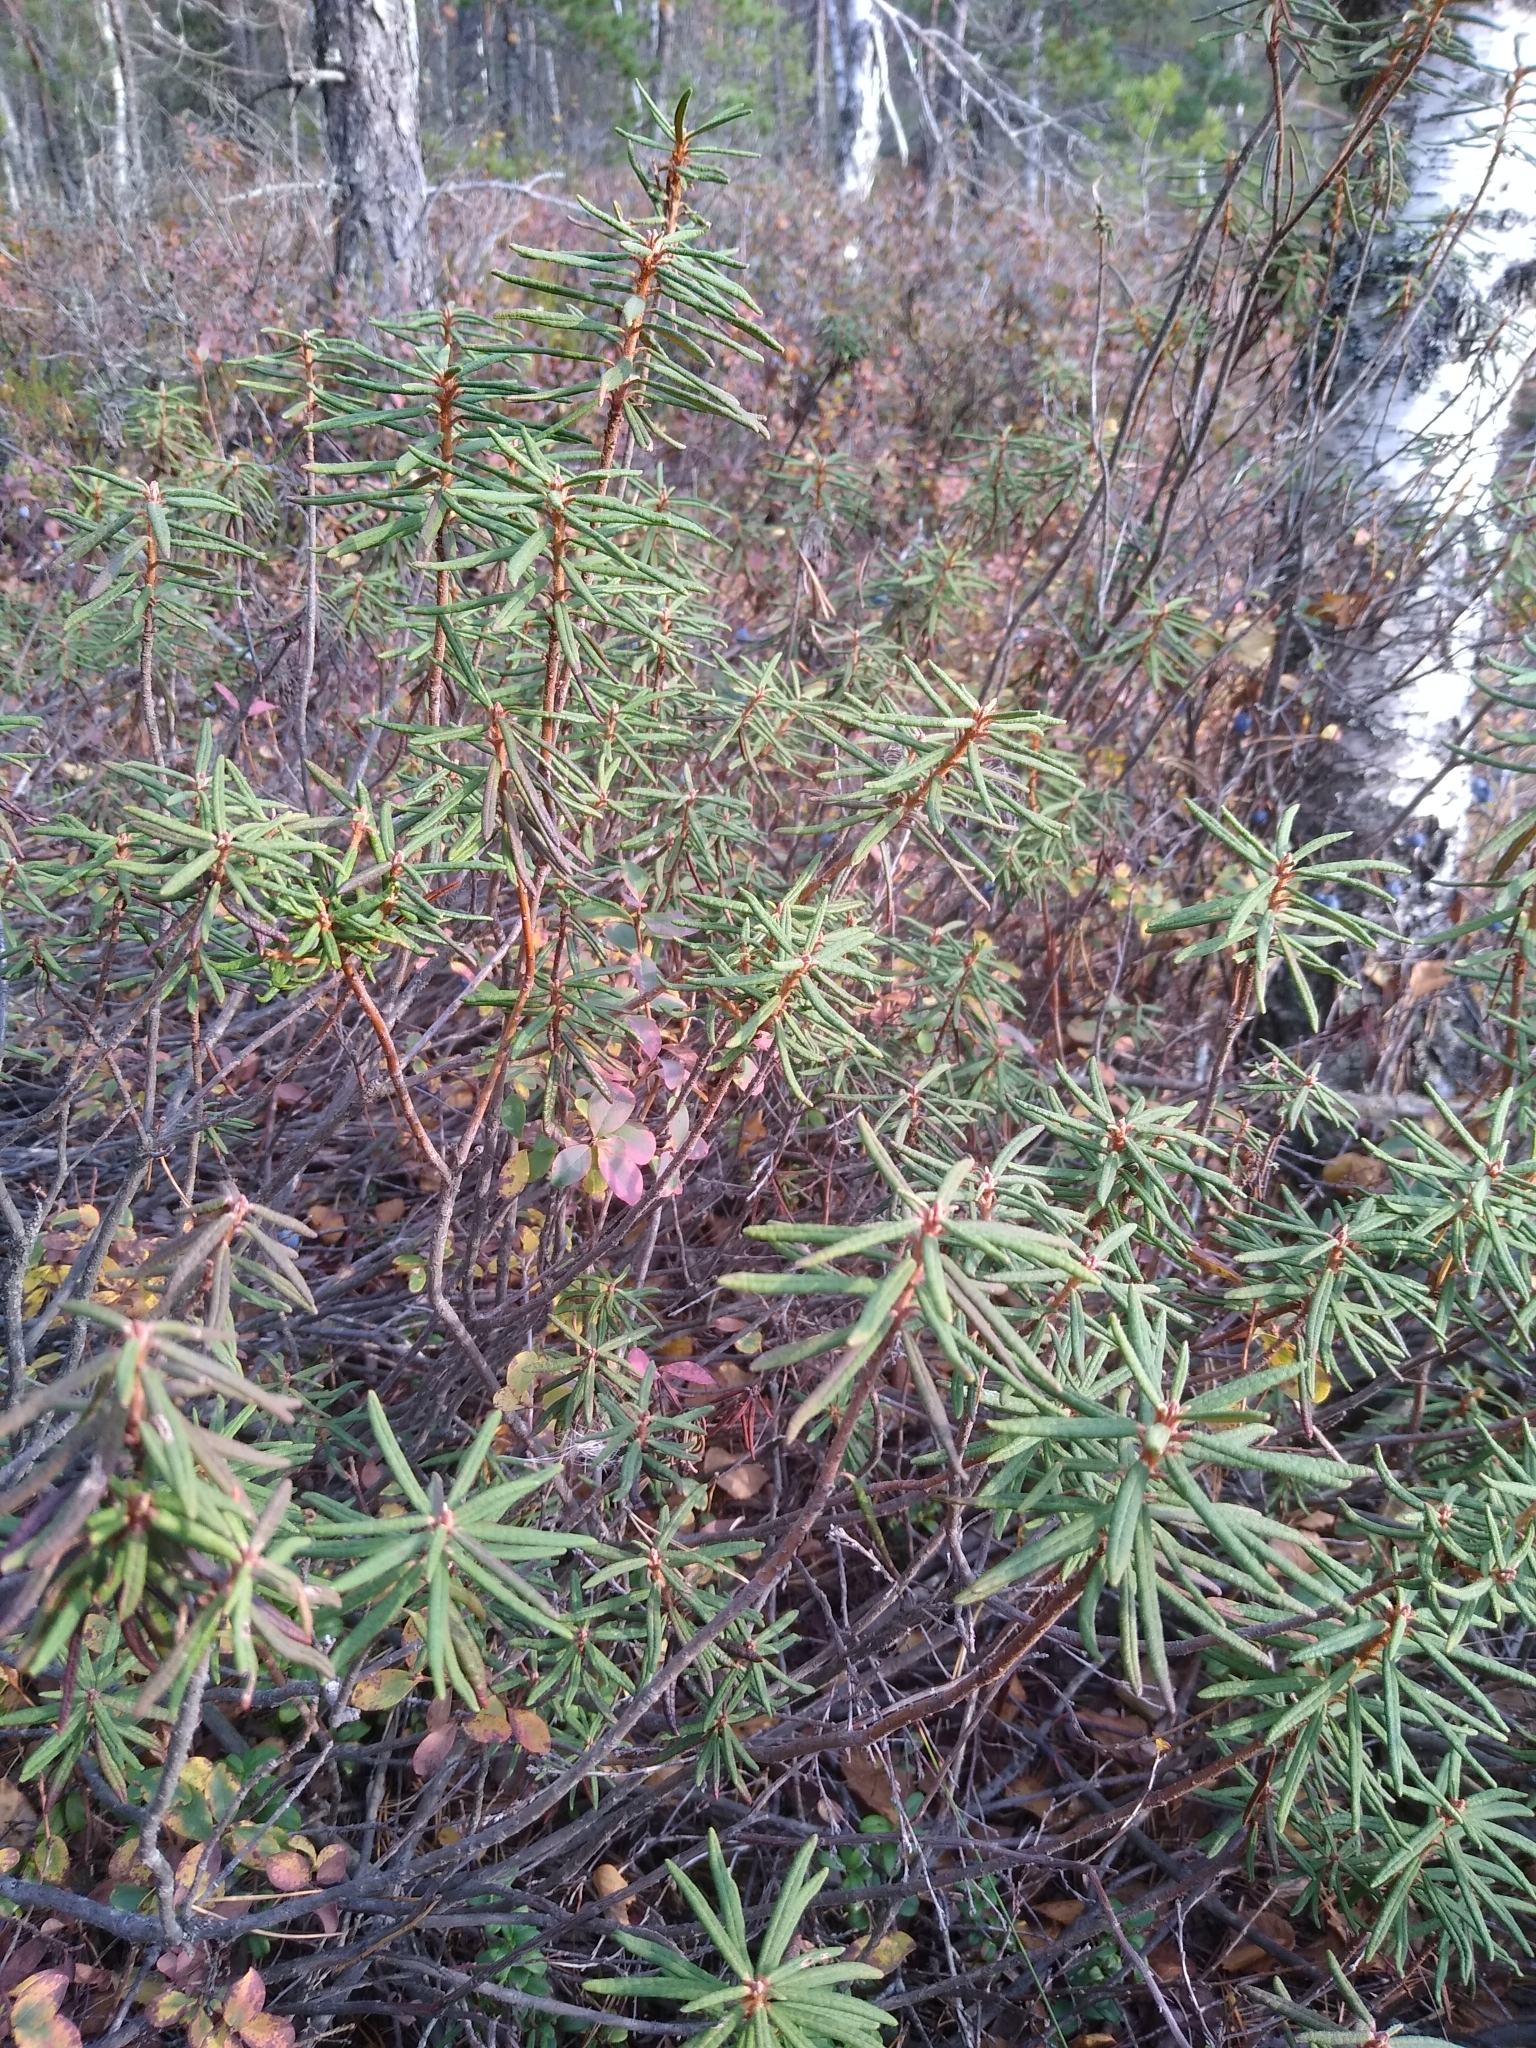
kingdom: Plantae
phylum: Tracheophyta
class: Magnoliopsida
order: Ericales
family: Ericaceae
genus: Rhododendron
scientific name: Rhododendron tomentosum
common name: Marsh labrador tea
